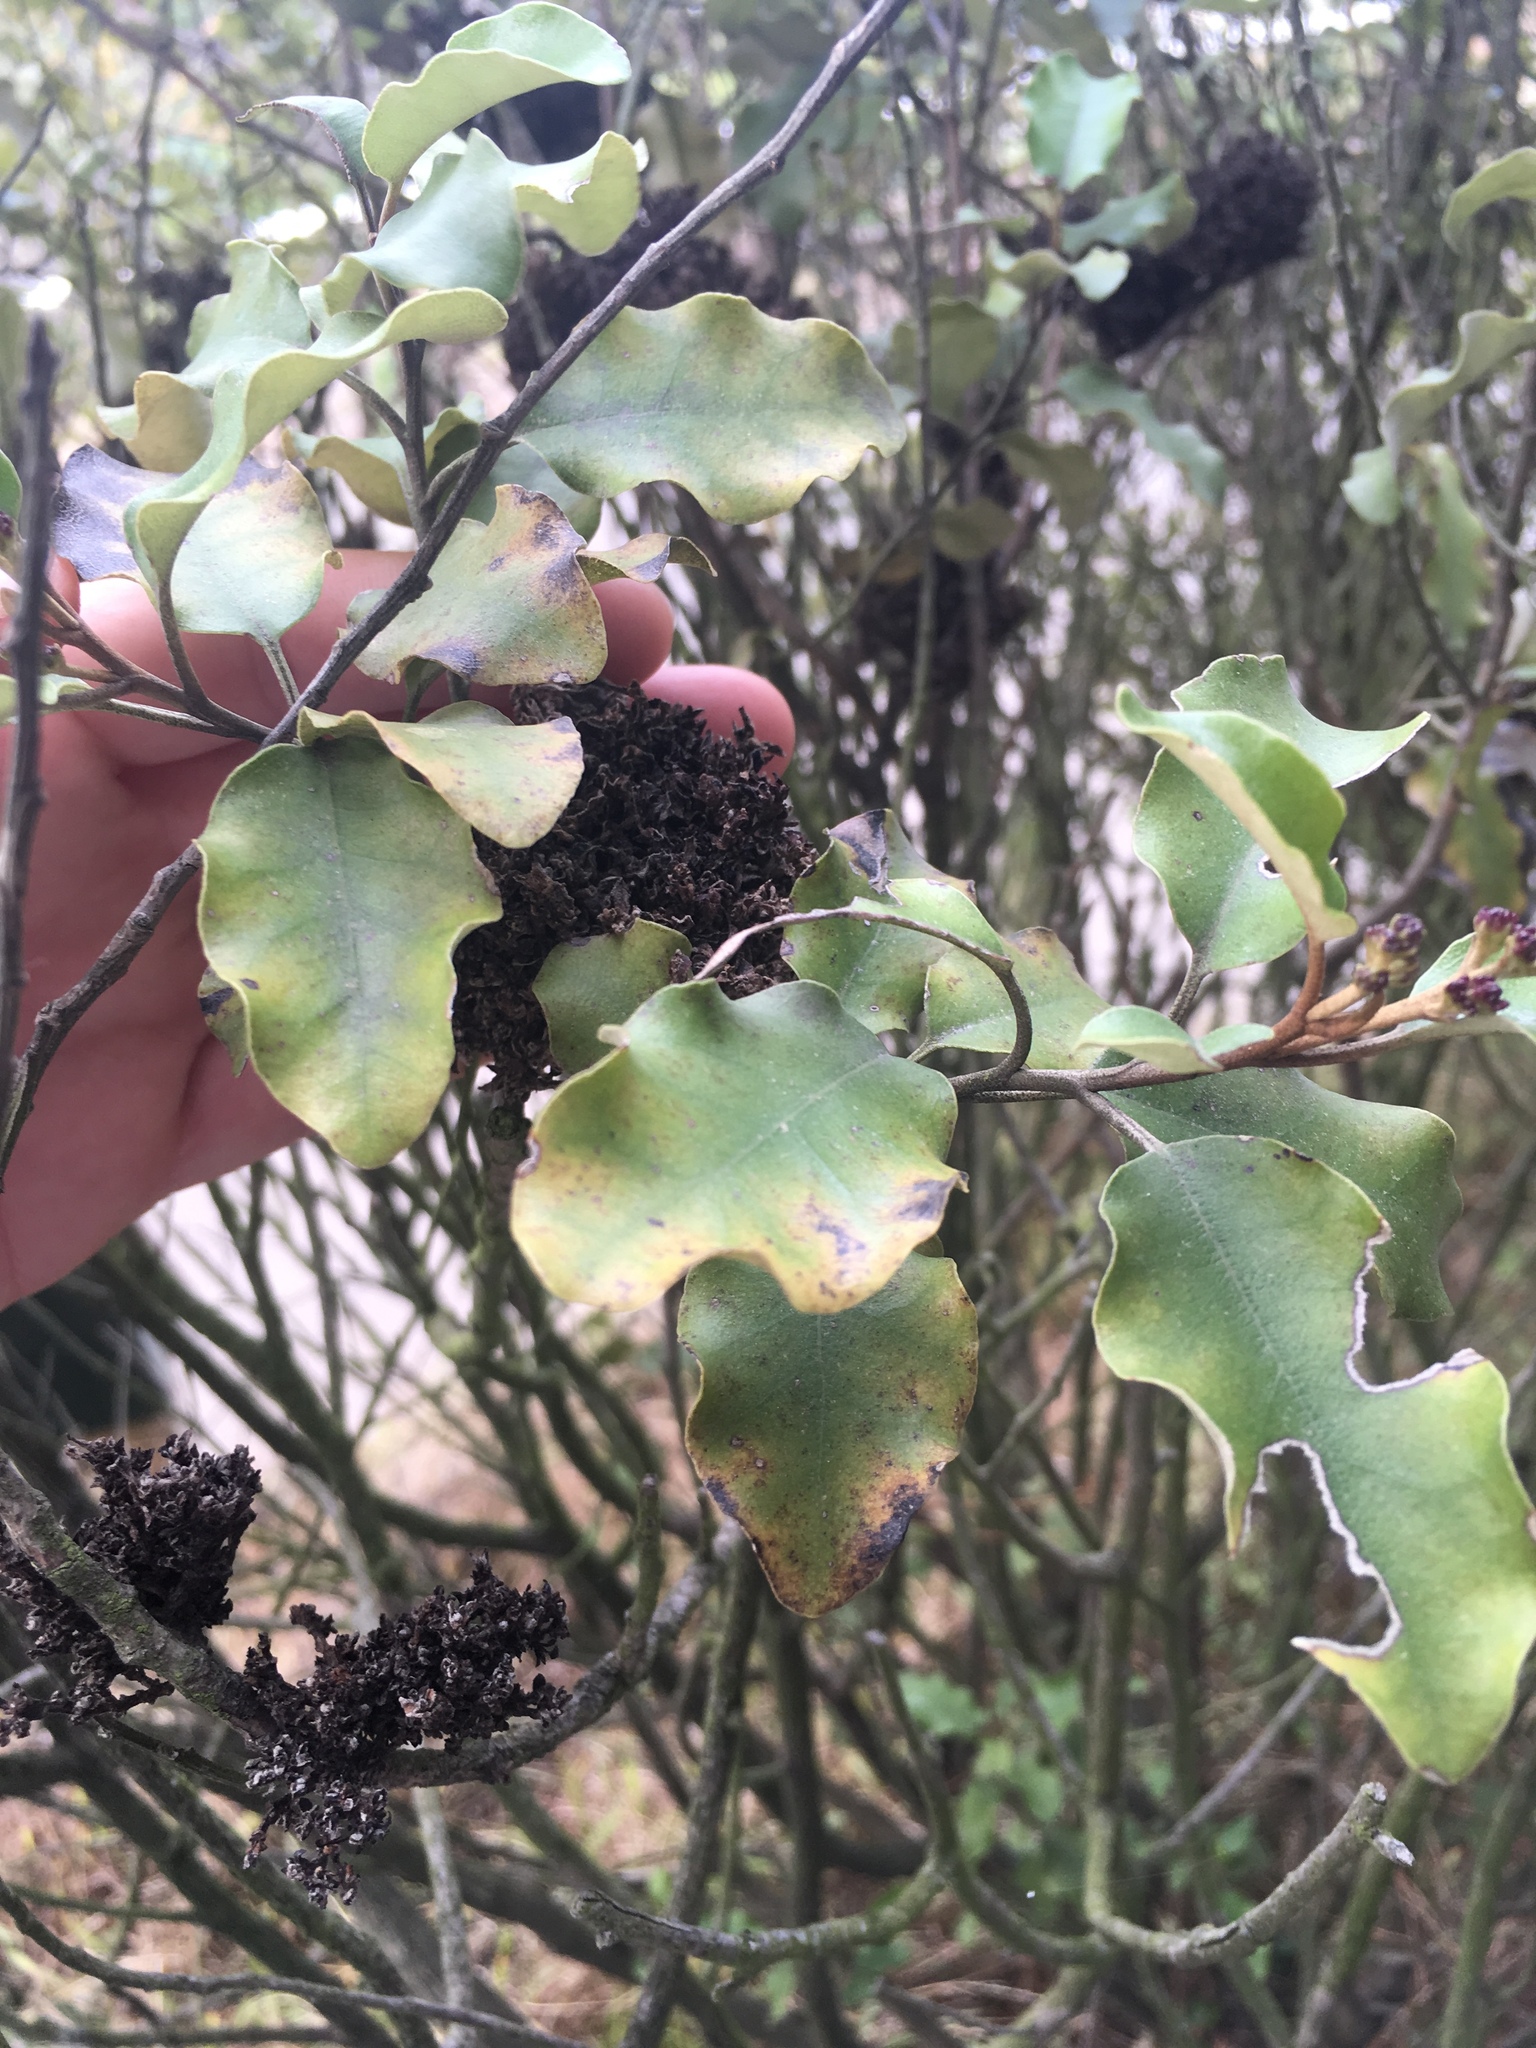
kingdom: Plantae
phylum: Tracheophyta
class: Magnoliopsida
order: Asterales
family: Asteraceae
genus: Olearia
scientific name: Olearia paniculata
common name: Akiraho
